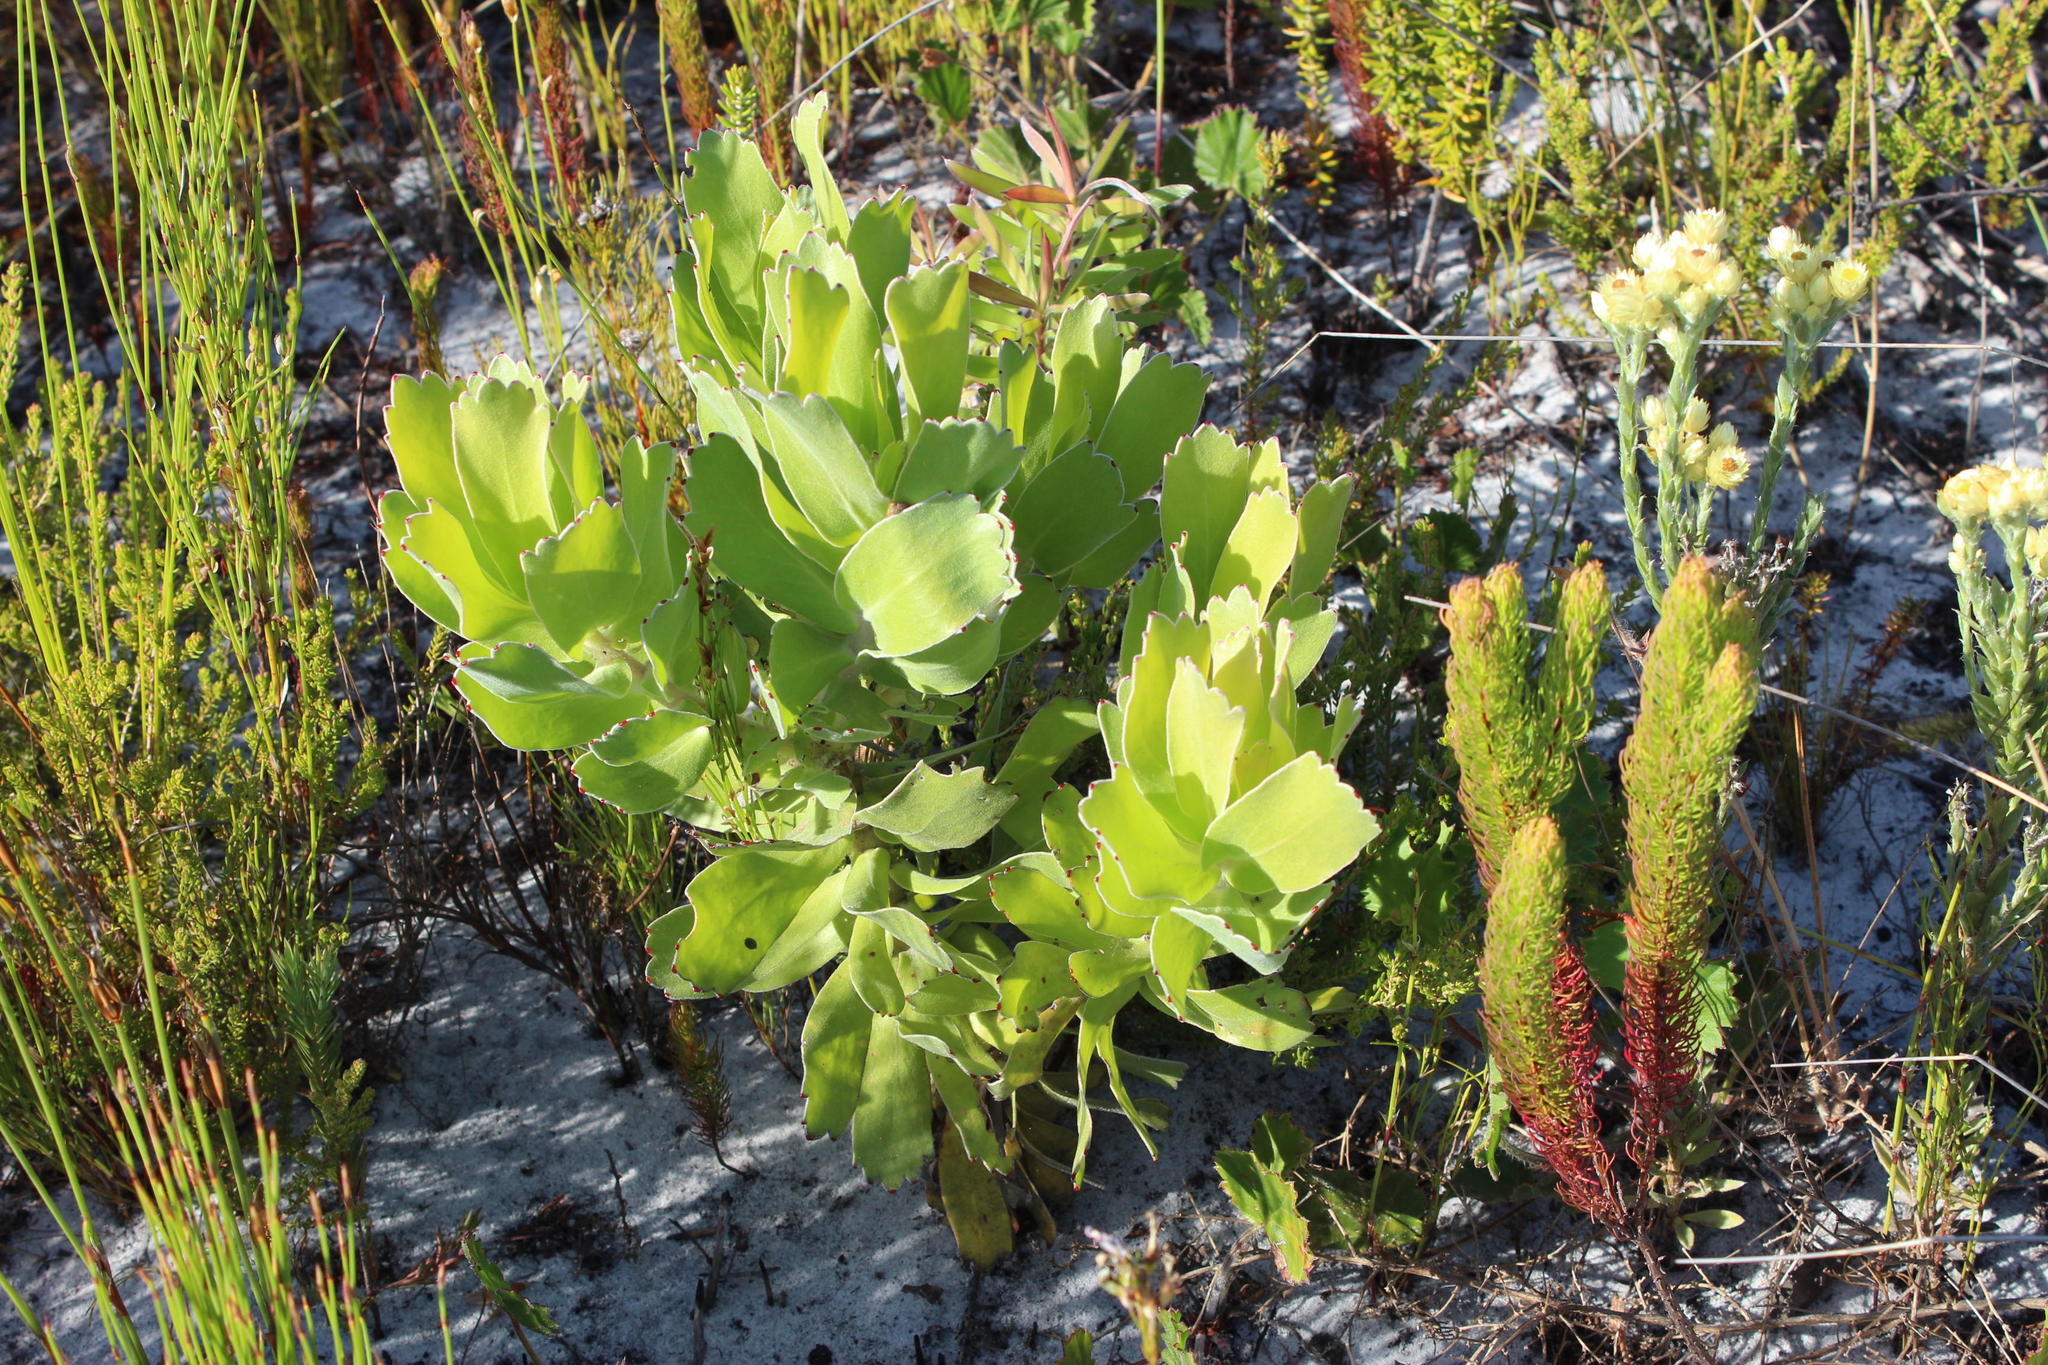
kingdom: Plantae
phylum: Tracheophyta
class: Magnoliopsida
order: Proteales
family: Proteaceae
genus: Leucospermum
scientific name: Leucospermum patersonii
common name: False tree pincushion
